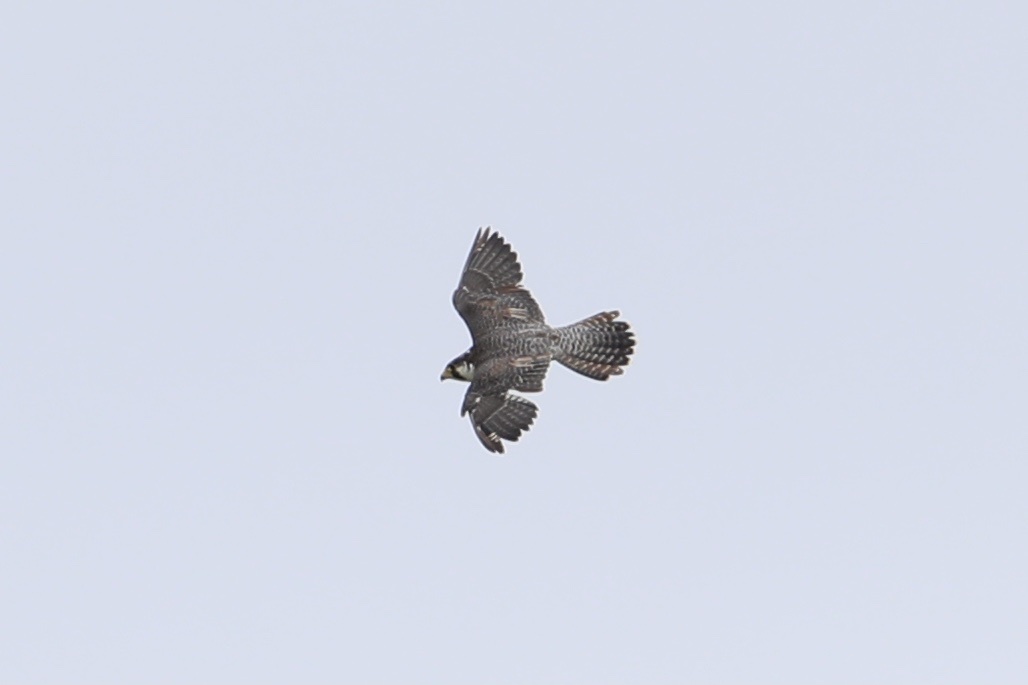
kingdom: Animalia
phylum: Chordata
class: Aves
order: Falconiformes
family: Falconidae
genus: Falco
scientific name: Falco peregrinus
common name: Peregrine falcon
